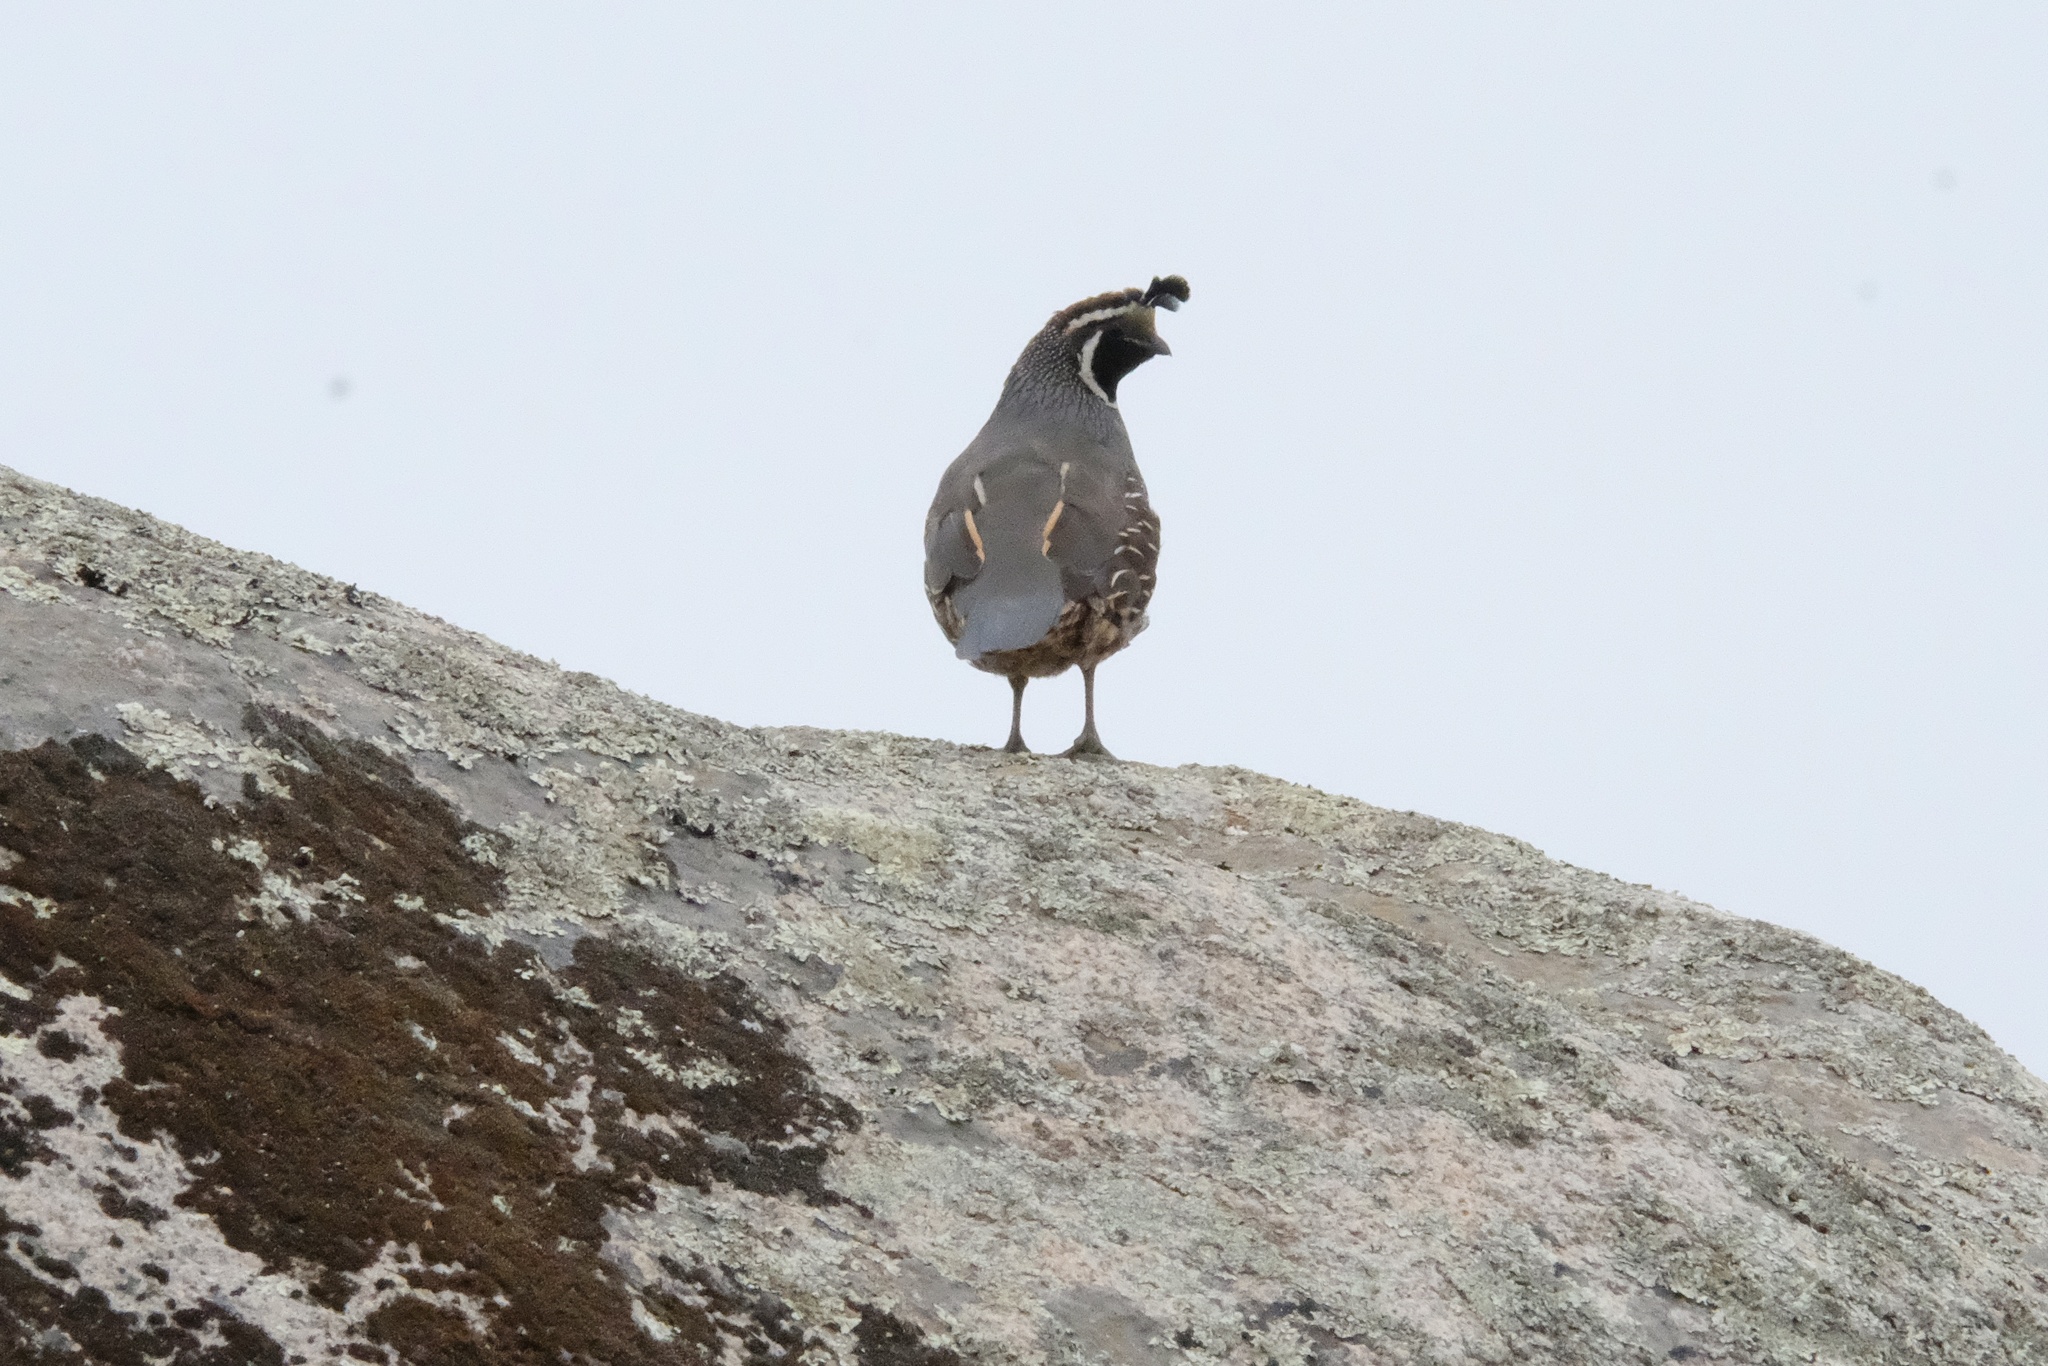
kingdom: Animalia
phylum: Chordata
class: Aves
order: Galliformes
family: Odontophoridae
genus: Callipepla
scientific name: Callipepla californica
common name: California quail
